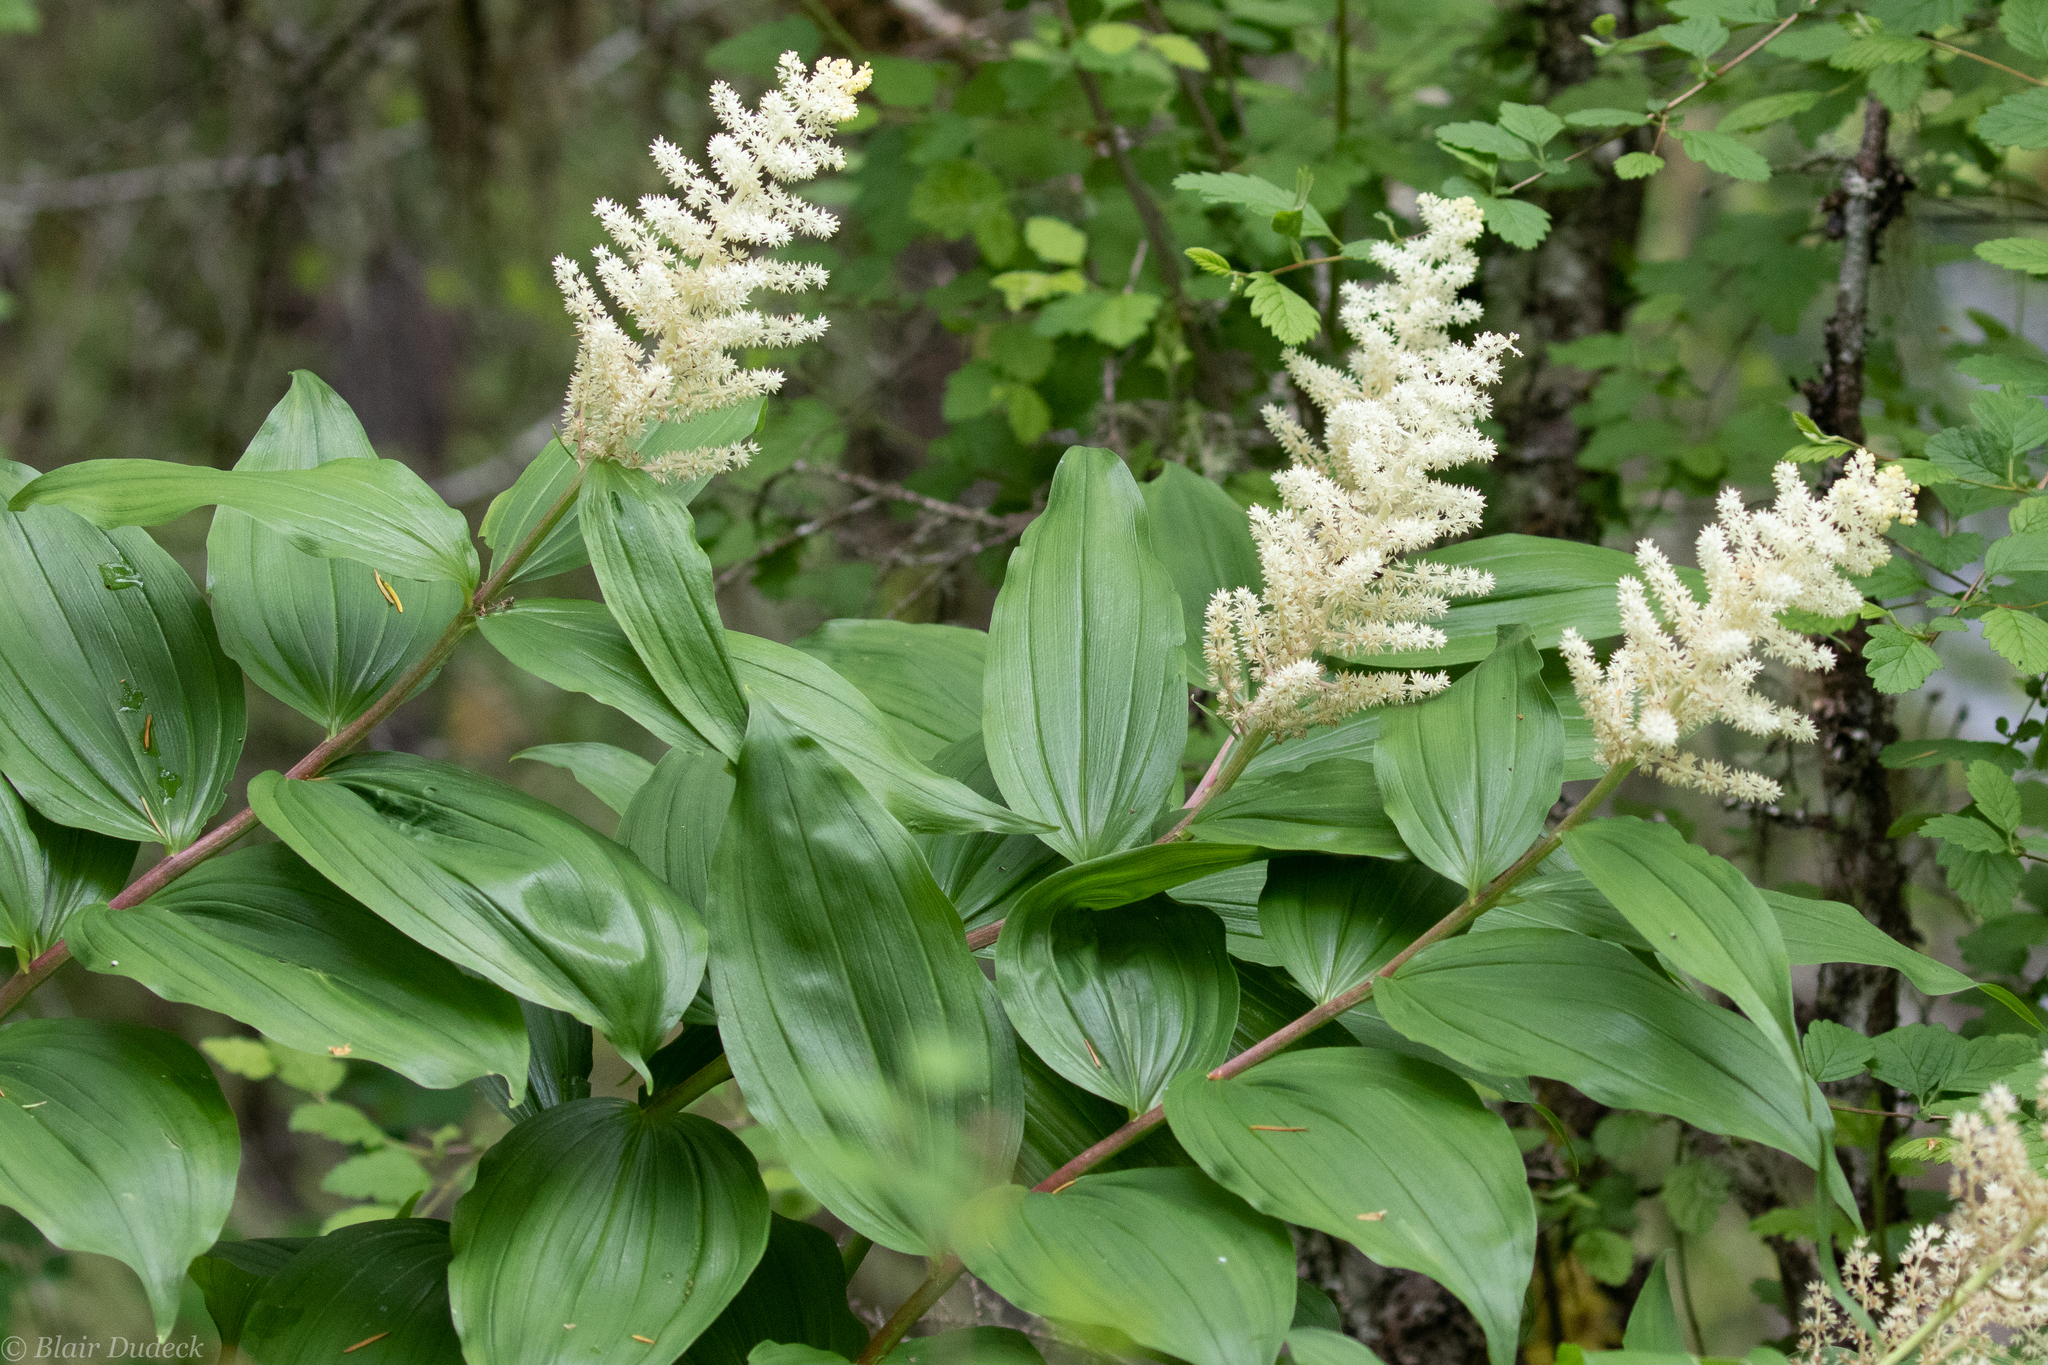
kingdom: Plantae
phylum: Tracheophyta
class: Liliopsida
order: Asparagales
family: Asparagaceae
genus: Maianthemum
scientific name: Maianthemum racemosum
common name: False spikenard
